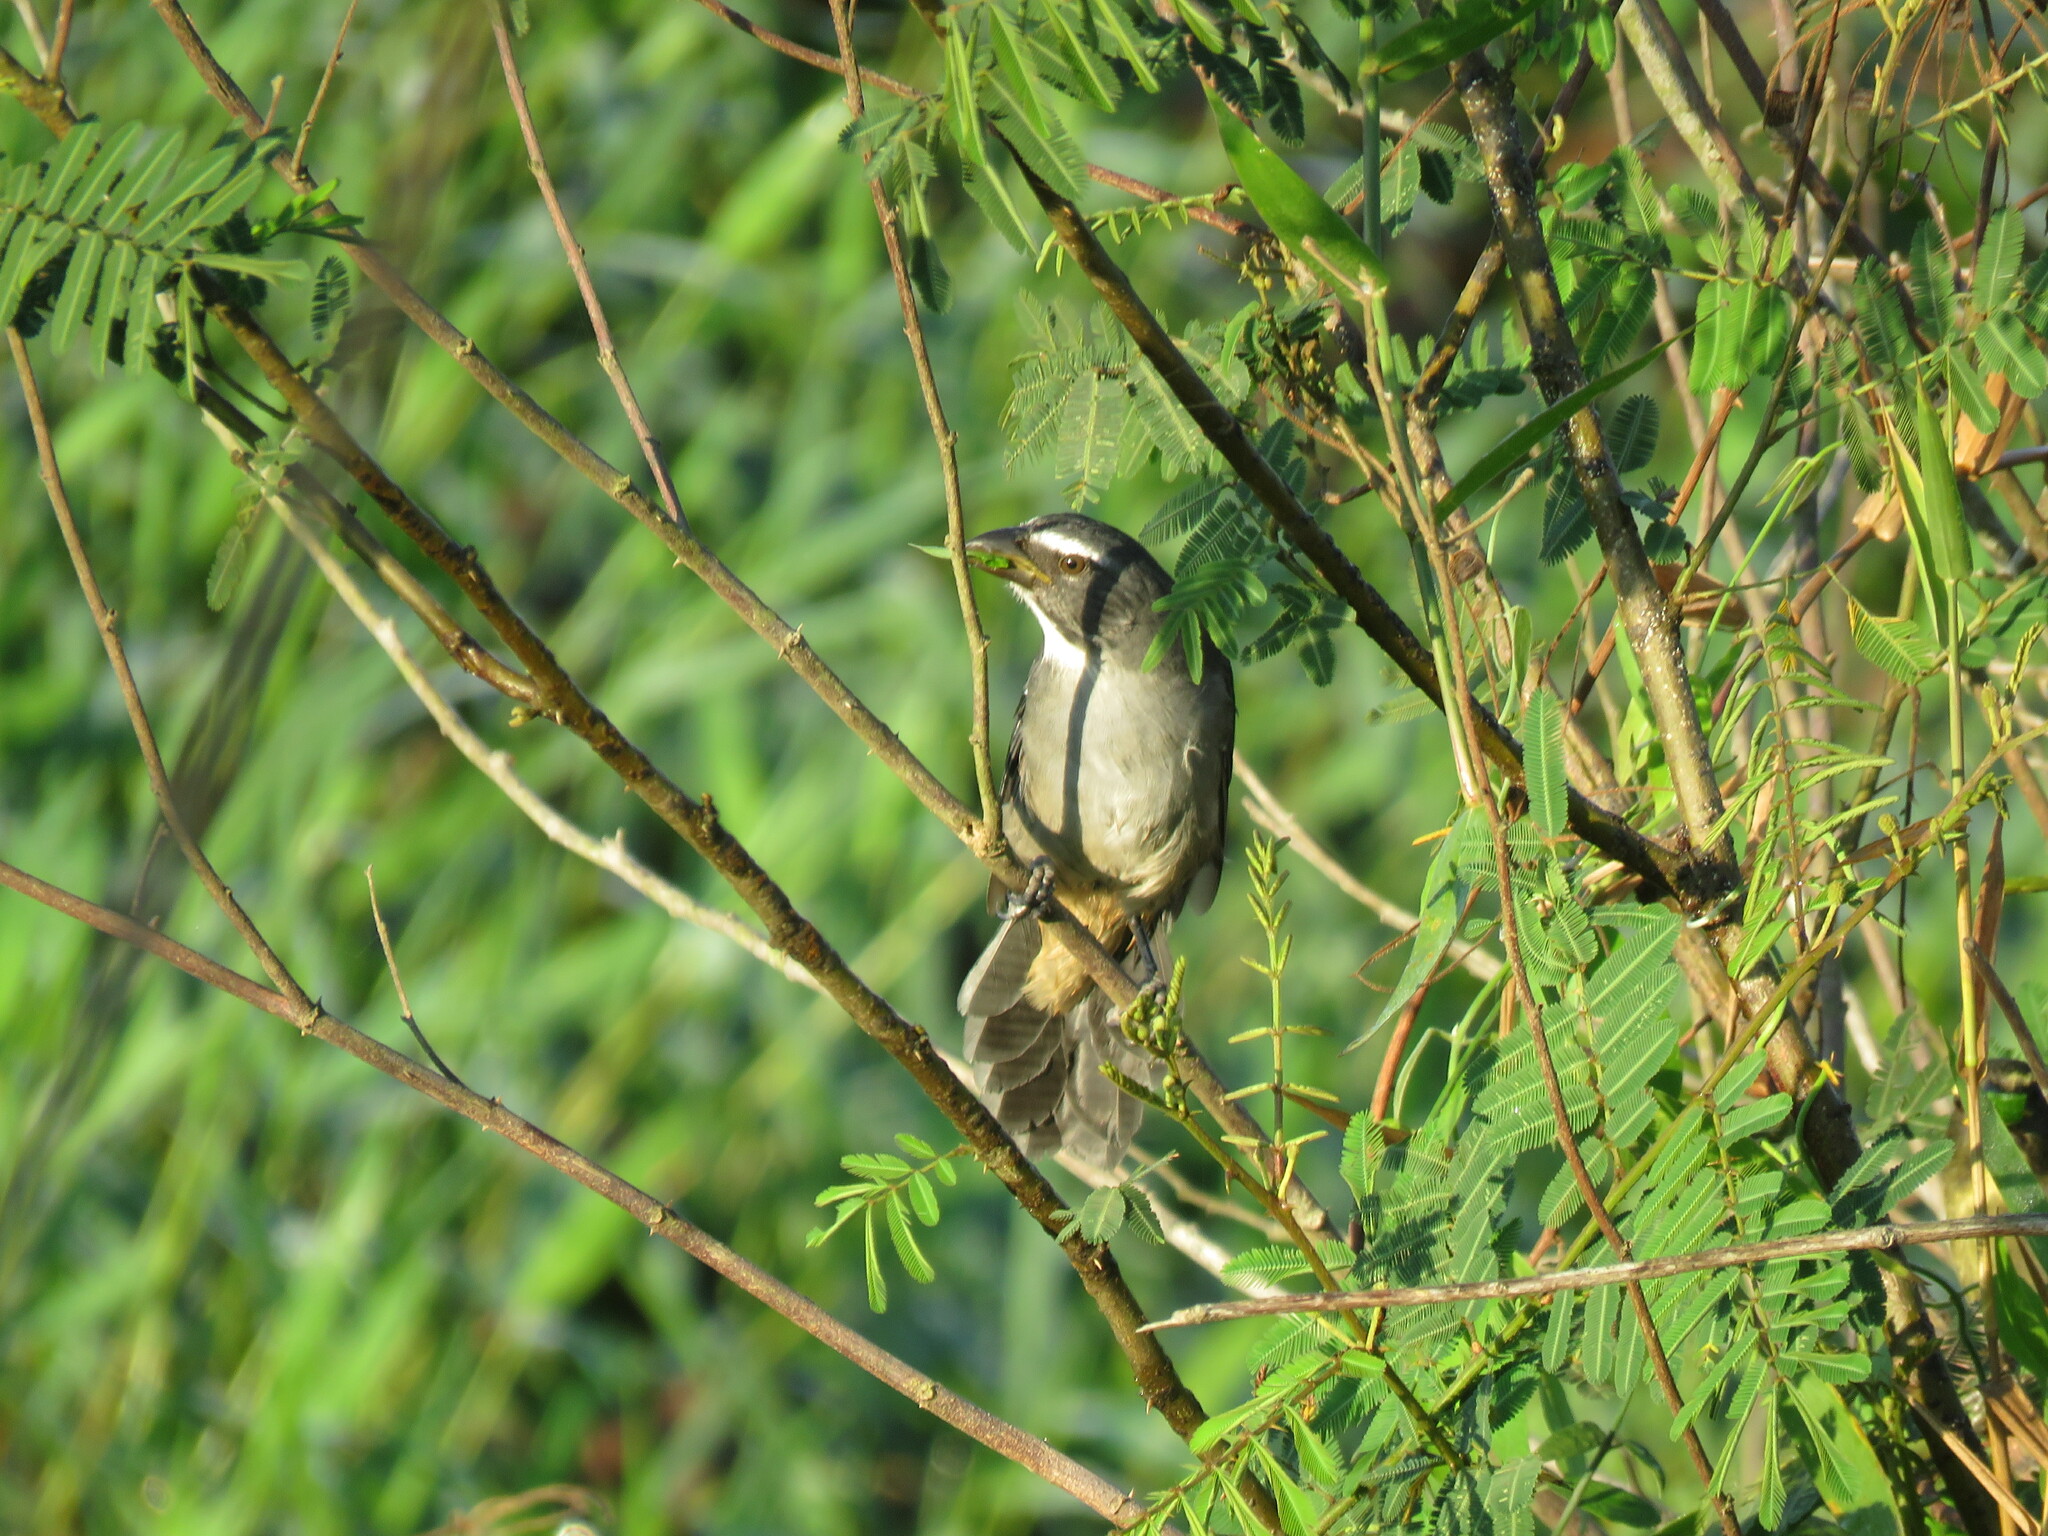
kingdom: Animalia
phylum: Chordata
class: Aves
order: Passeriformes
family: Thraupidae
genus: Saltator
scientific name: Saltator coerulescens
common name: Grayish saltator
